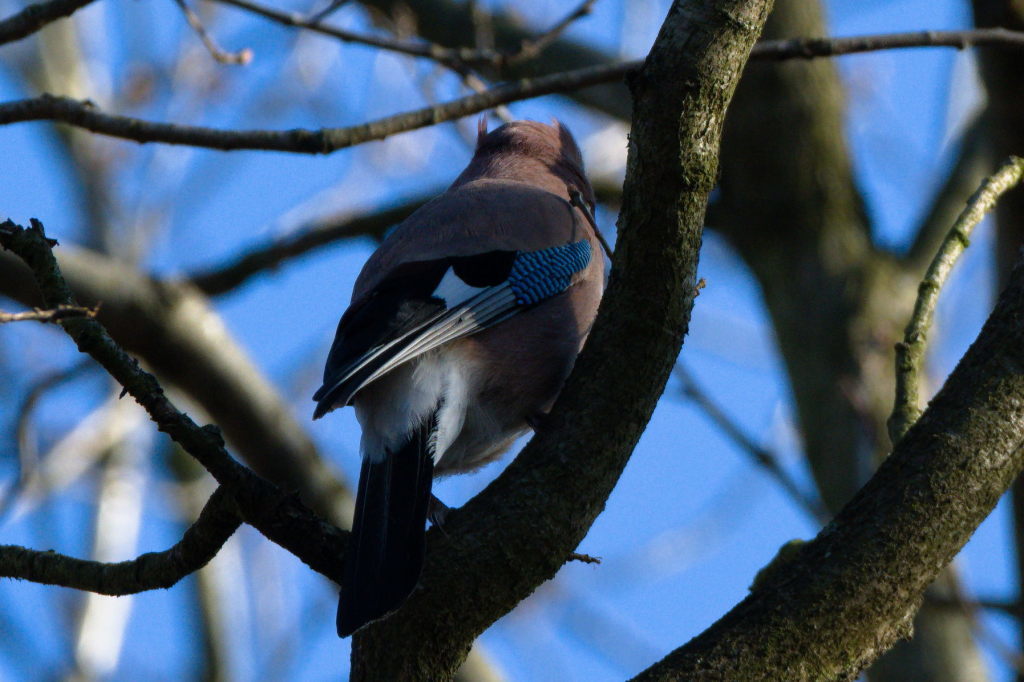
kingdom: Animalia
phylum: Chordata
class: Aves
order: Passeriformes
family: Corvidae
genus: Garrulus
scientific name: Garrulus glandarius
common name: Eurasian jay
